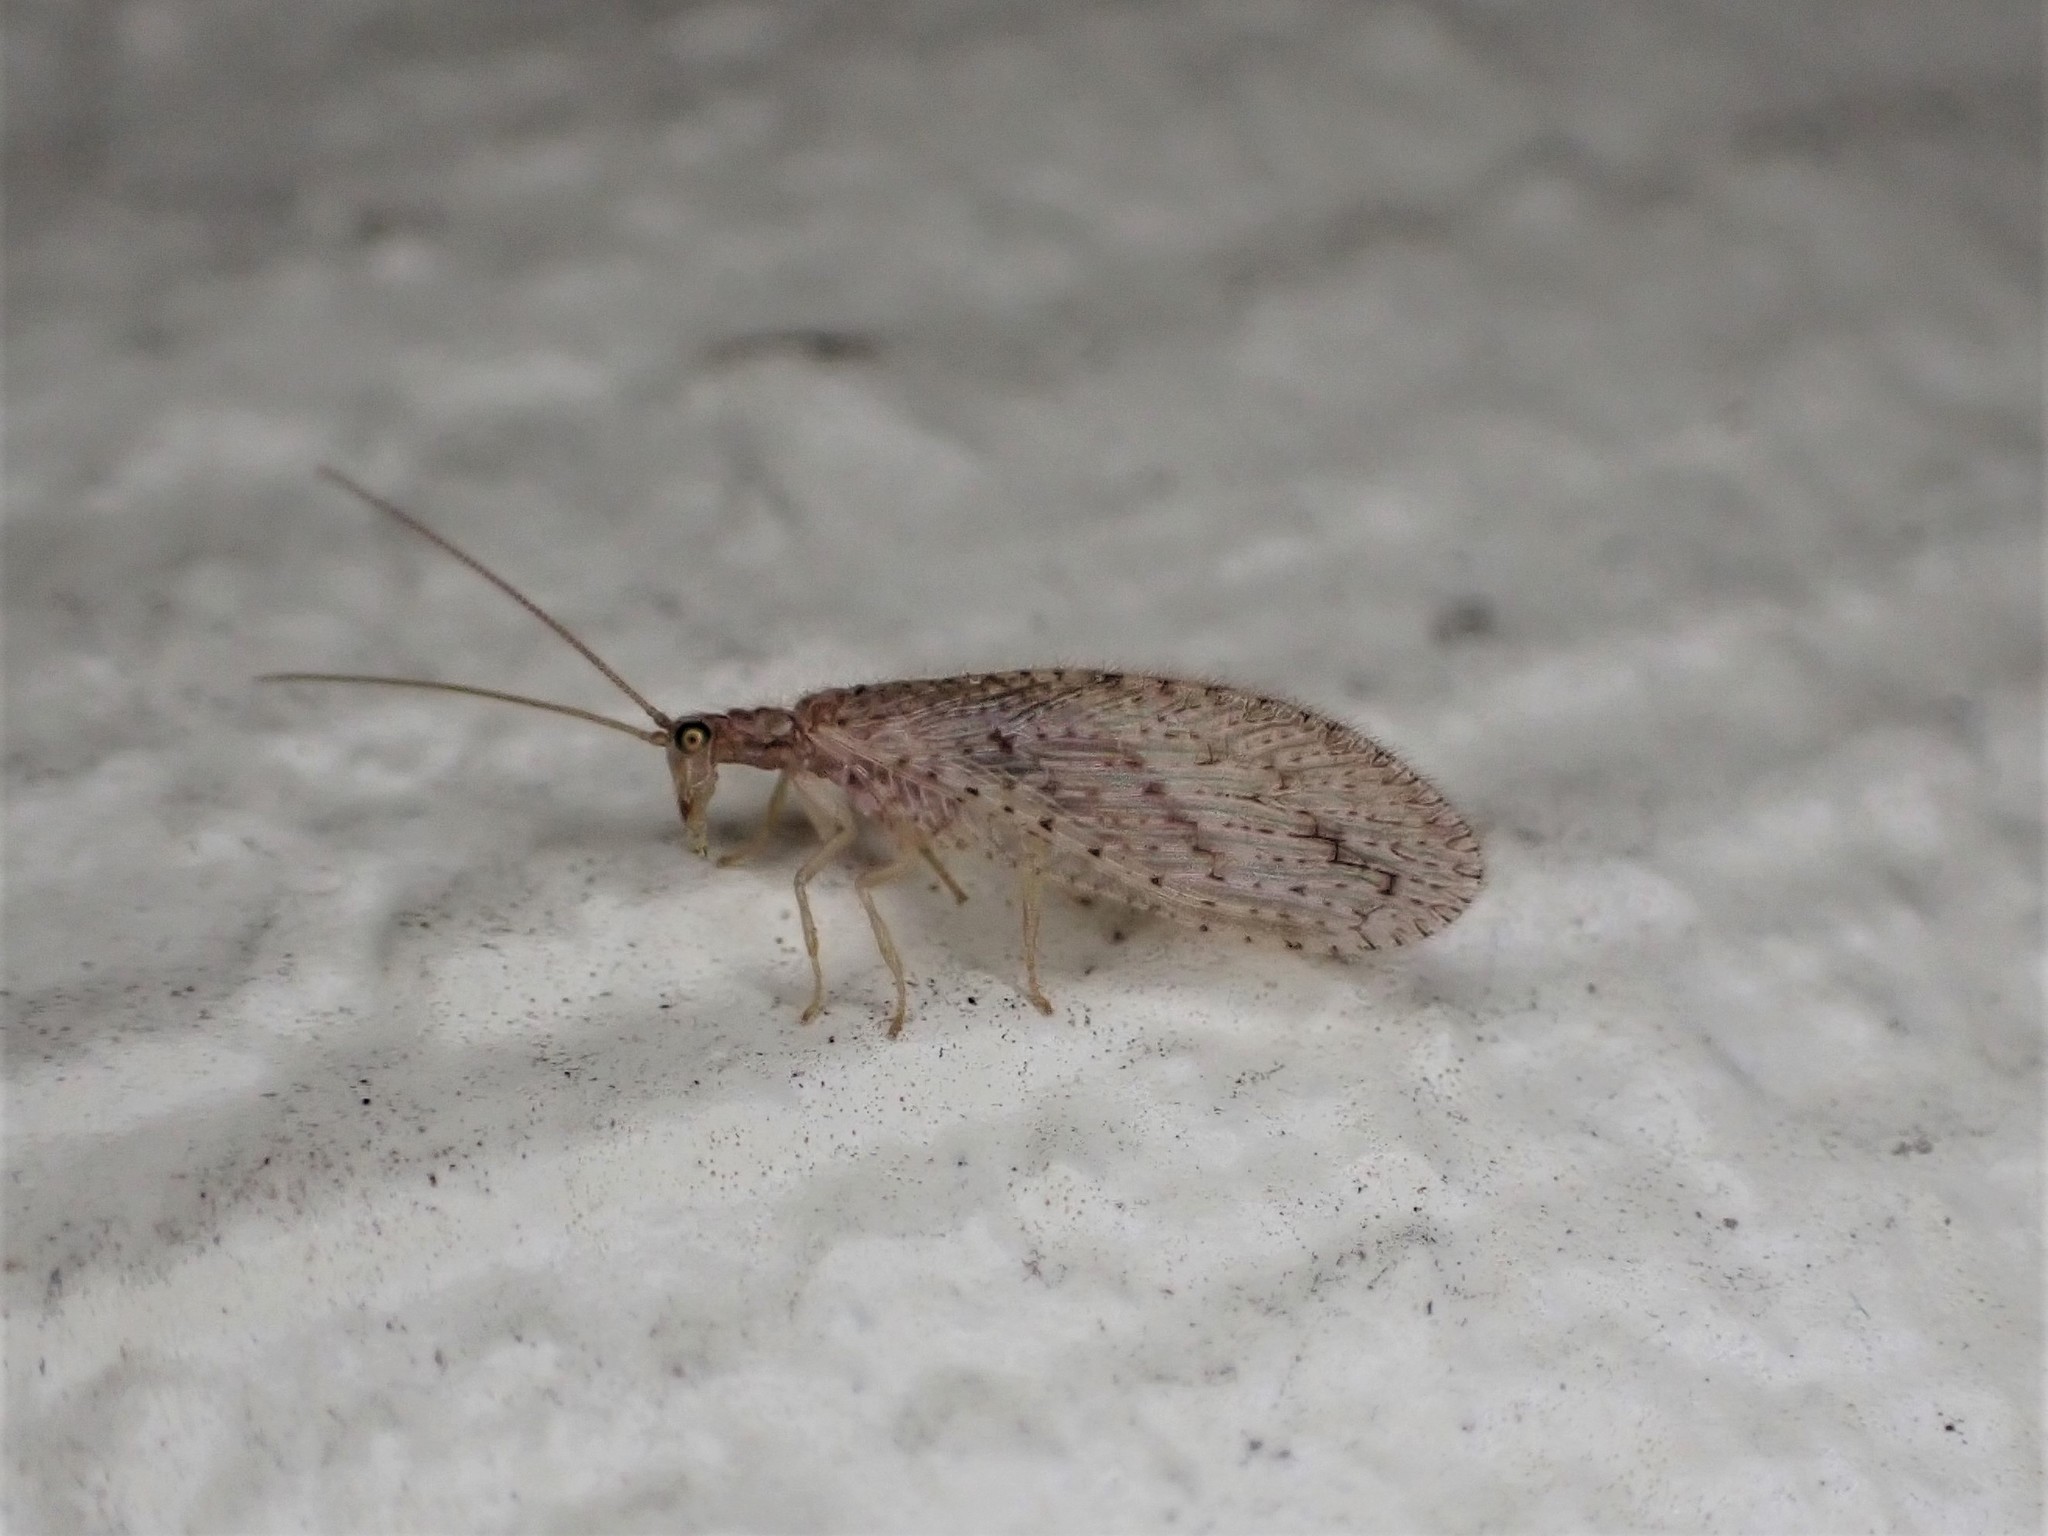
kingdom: Animalia
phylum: Arthropoda
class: Insecta
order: Neuroptera
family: Hemerobiidae
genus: Micromus
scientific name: Micromus tasmaniae
